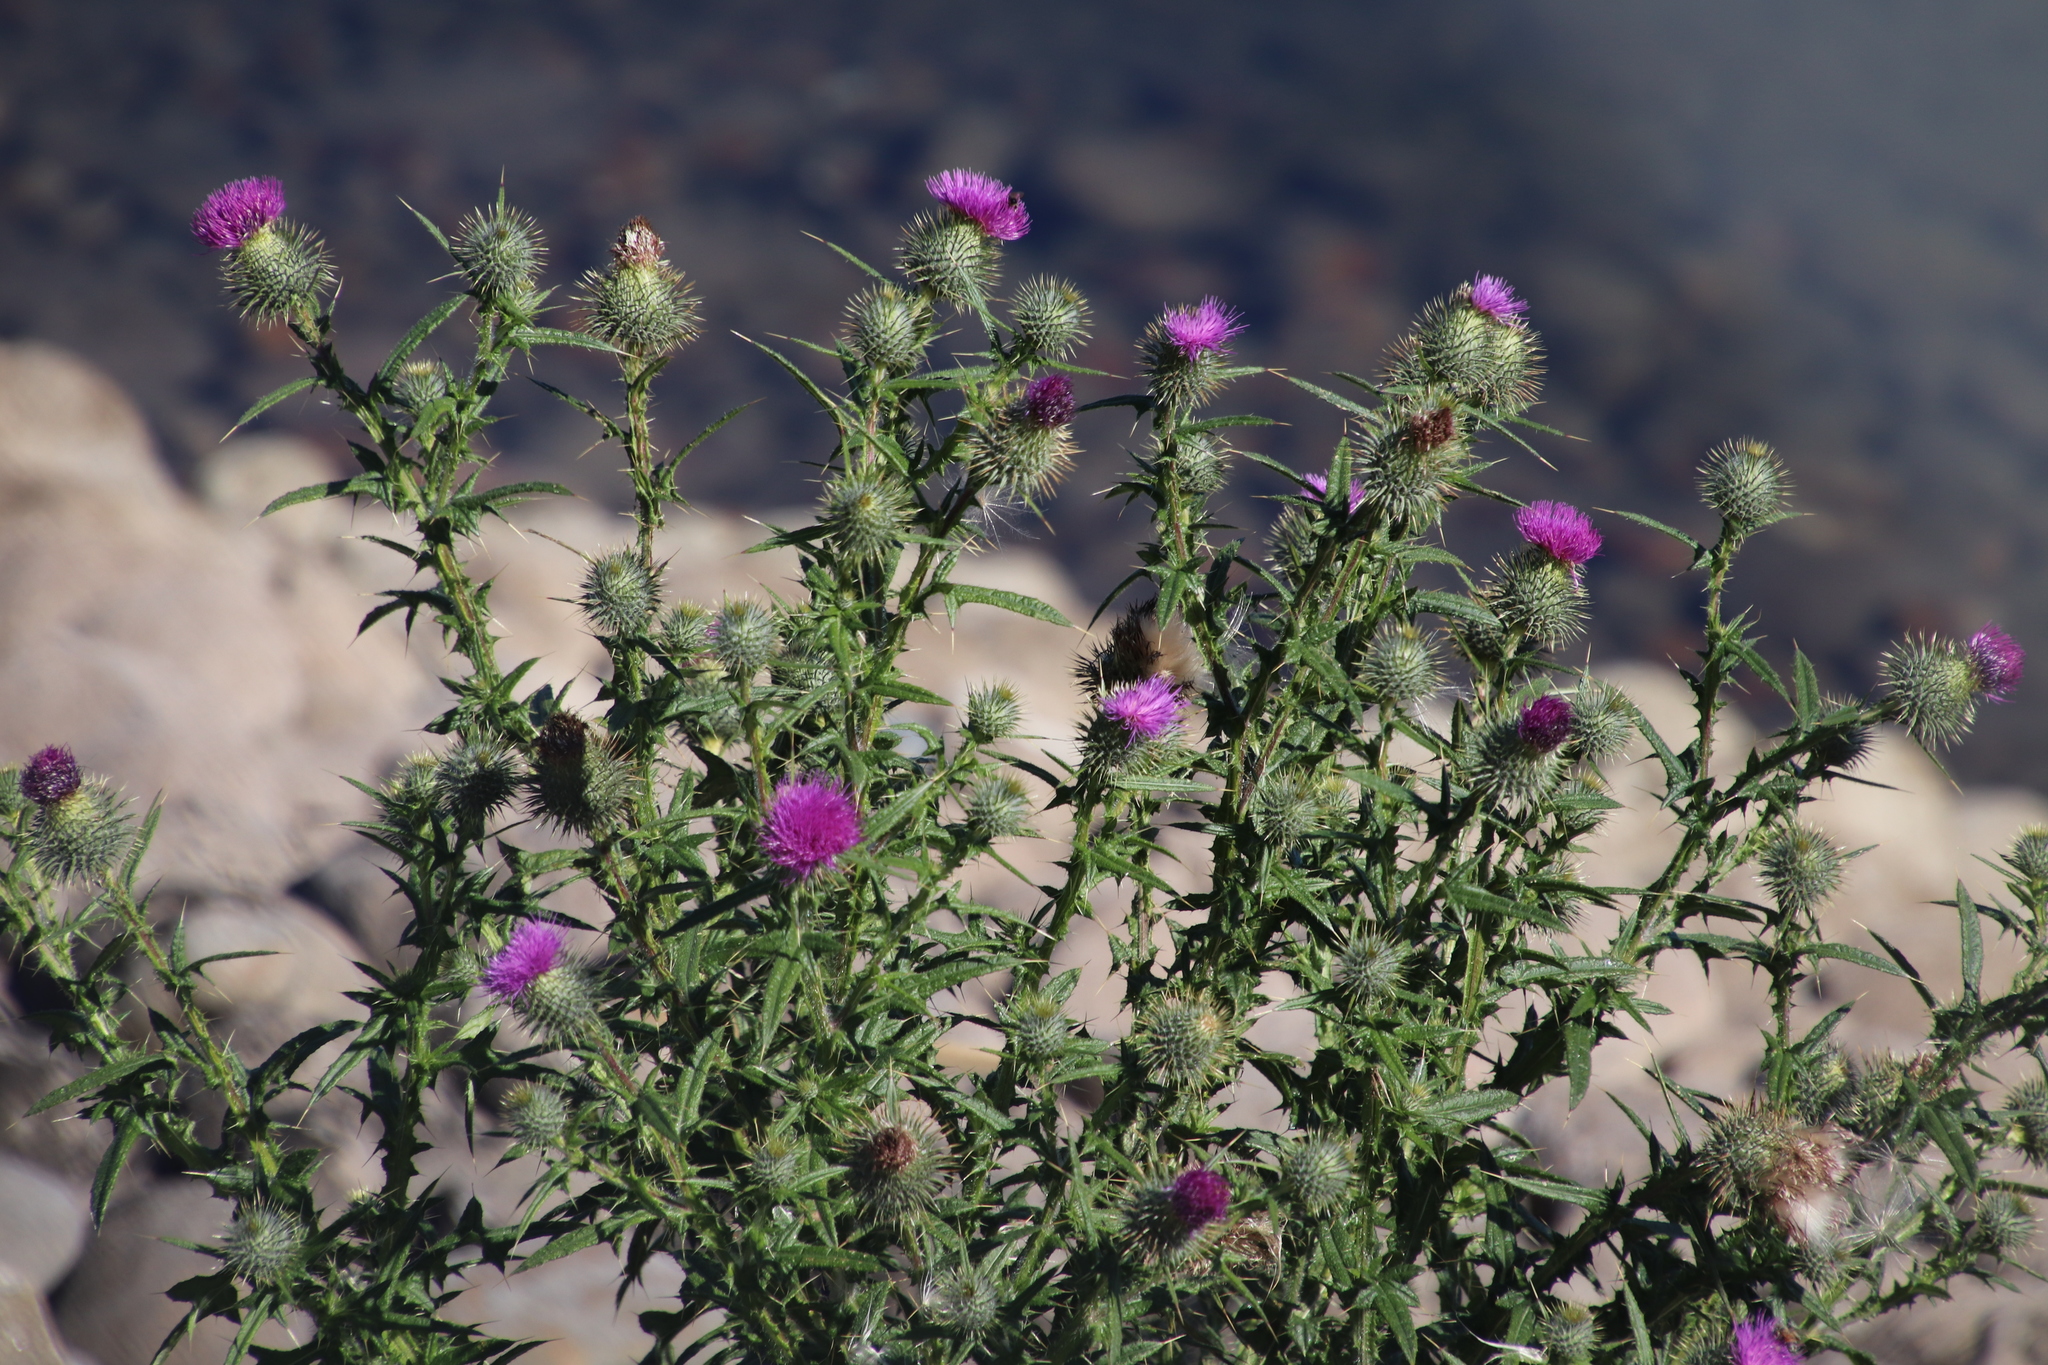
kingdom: Plantae
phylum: Tracheophyta
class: Magnoliopsida
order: Asterales
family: Asteraceae
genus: Cirsium
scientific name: Cirsium vulgare
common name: Bull thistle
